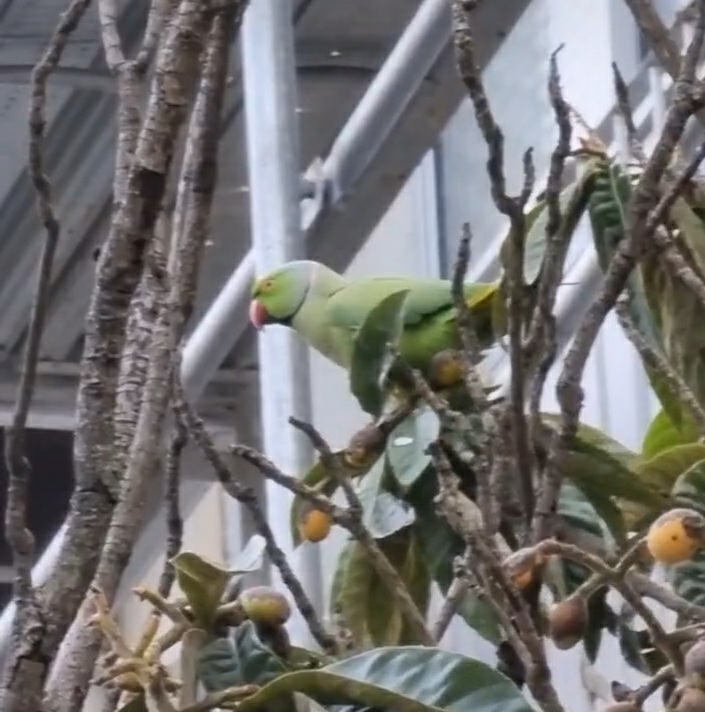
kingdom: Animalia
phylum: Chordata
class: Aves
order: Psittaciformes
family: Psittacidae
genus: Psittacula
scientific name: Psittacula krameri
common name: Rose-ringed parakeet
